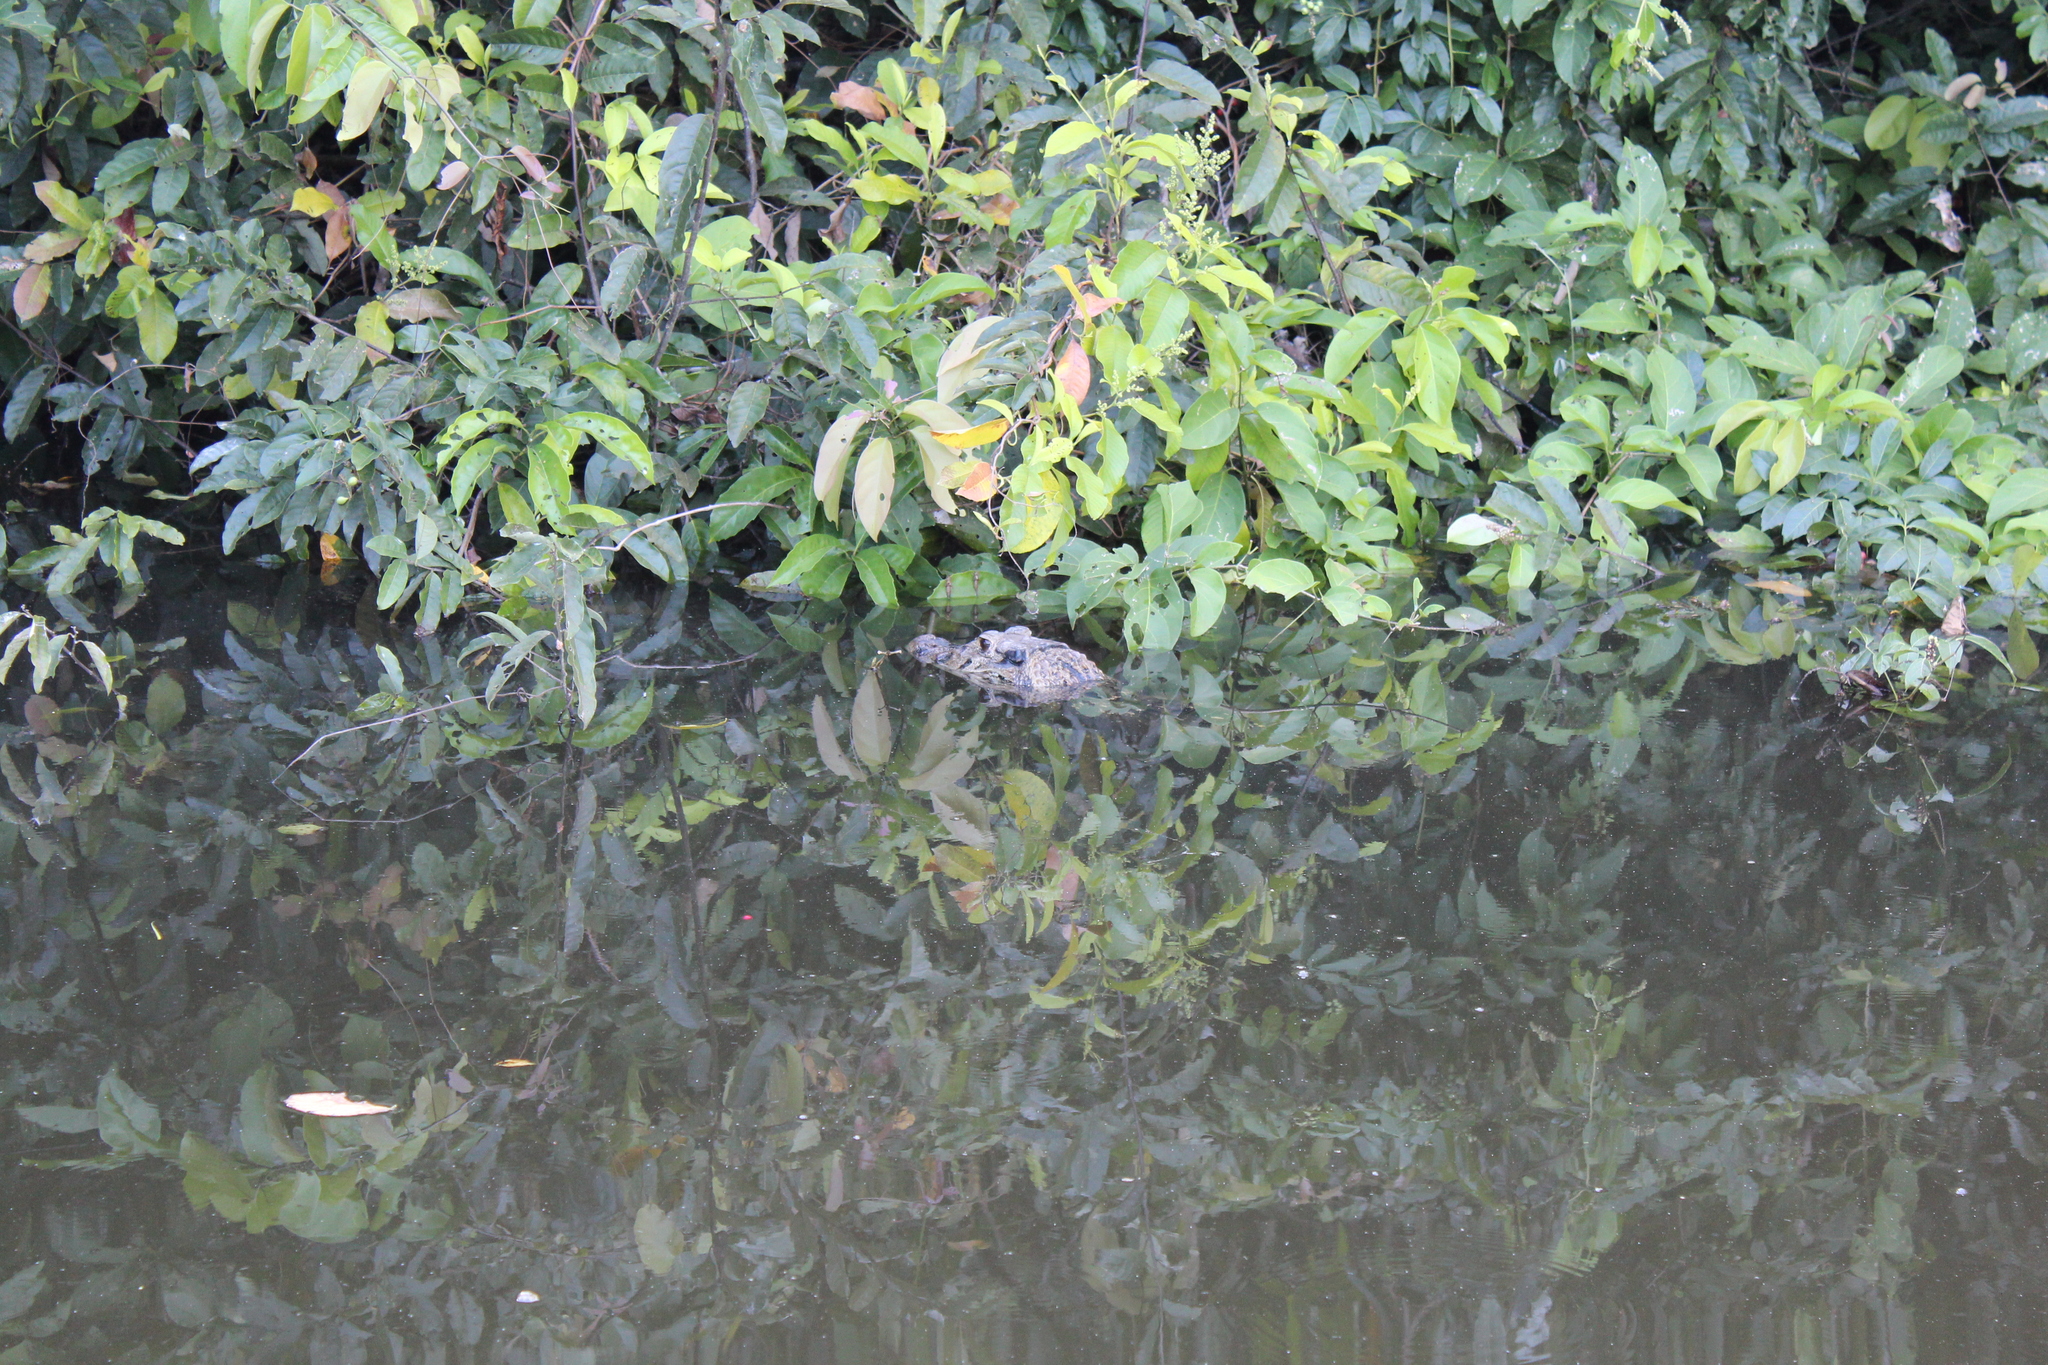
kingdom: Animalia
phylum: Chordata
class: Crocodylia
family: Alligatoridae
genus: Melanosuchus
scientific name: Melanosuchus niger
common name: Black caiman
